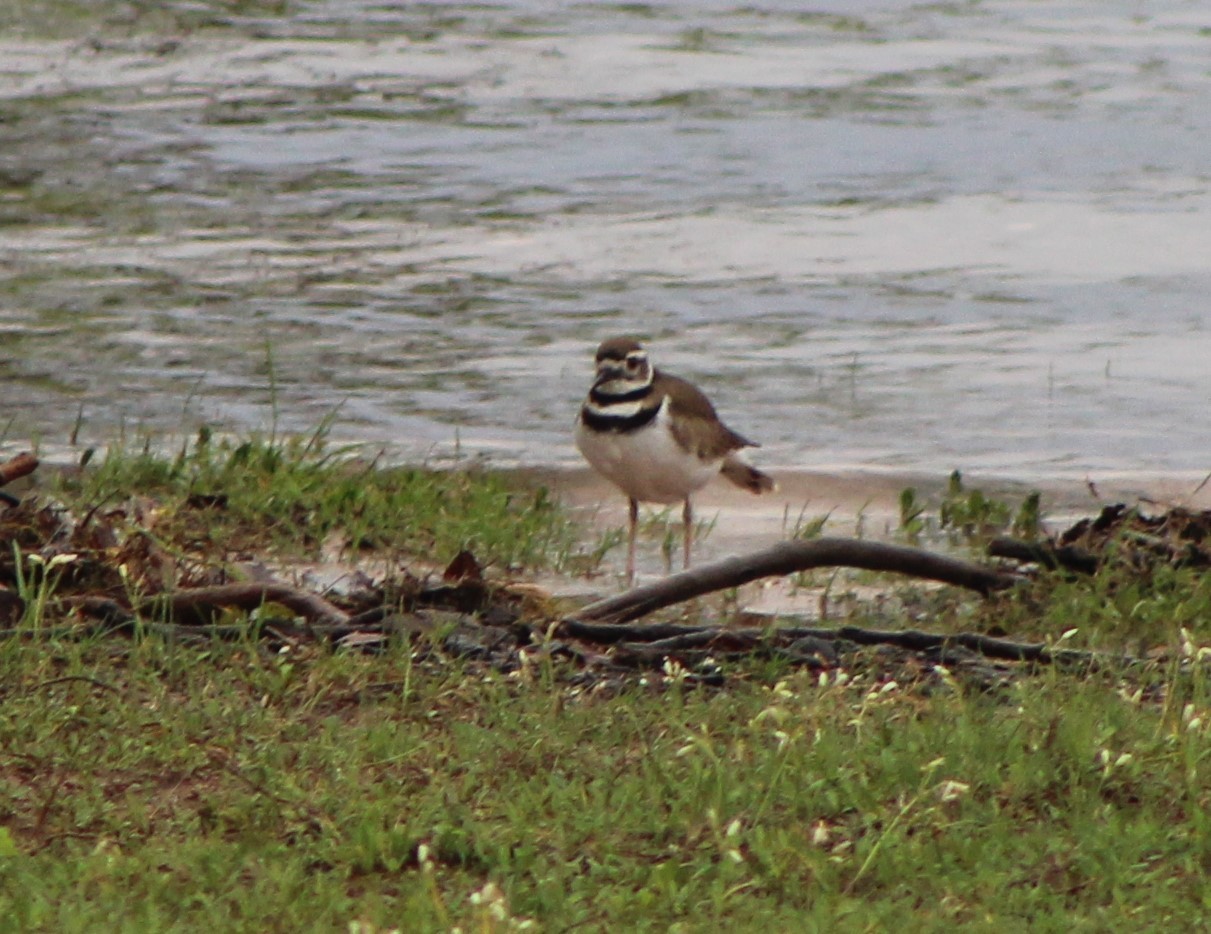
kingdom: Animalia
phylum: Chordata
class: Aves
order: Charadriiformes
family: Charadriidae
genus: Charadrius
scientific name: Charadrius vociferus
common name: Killdeer
